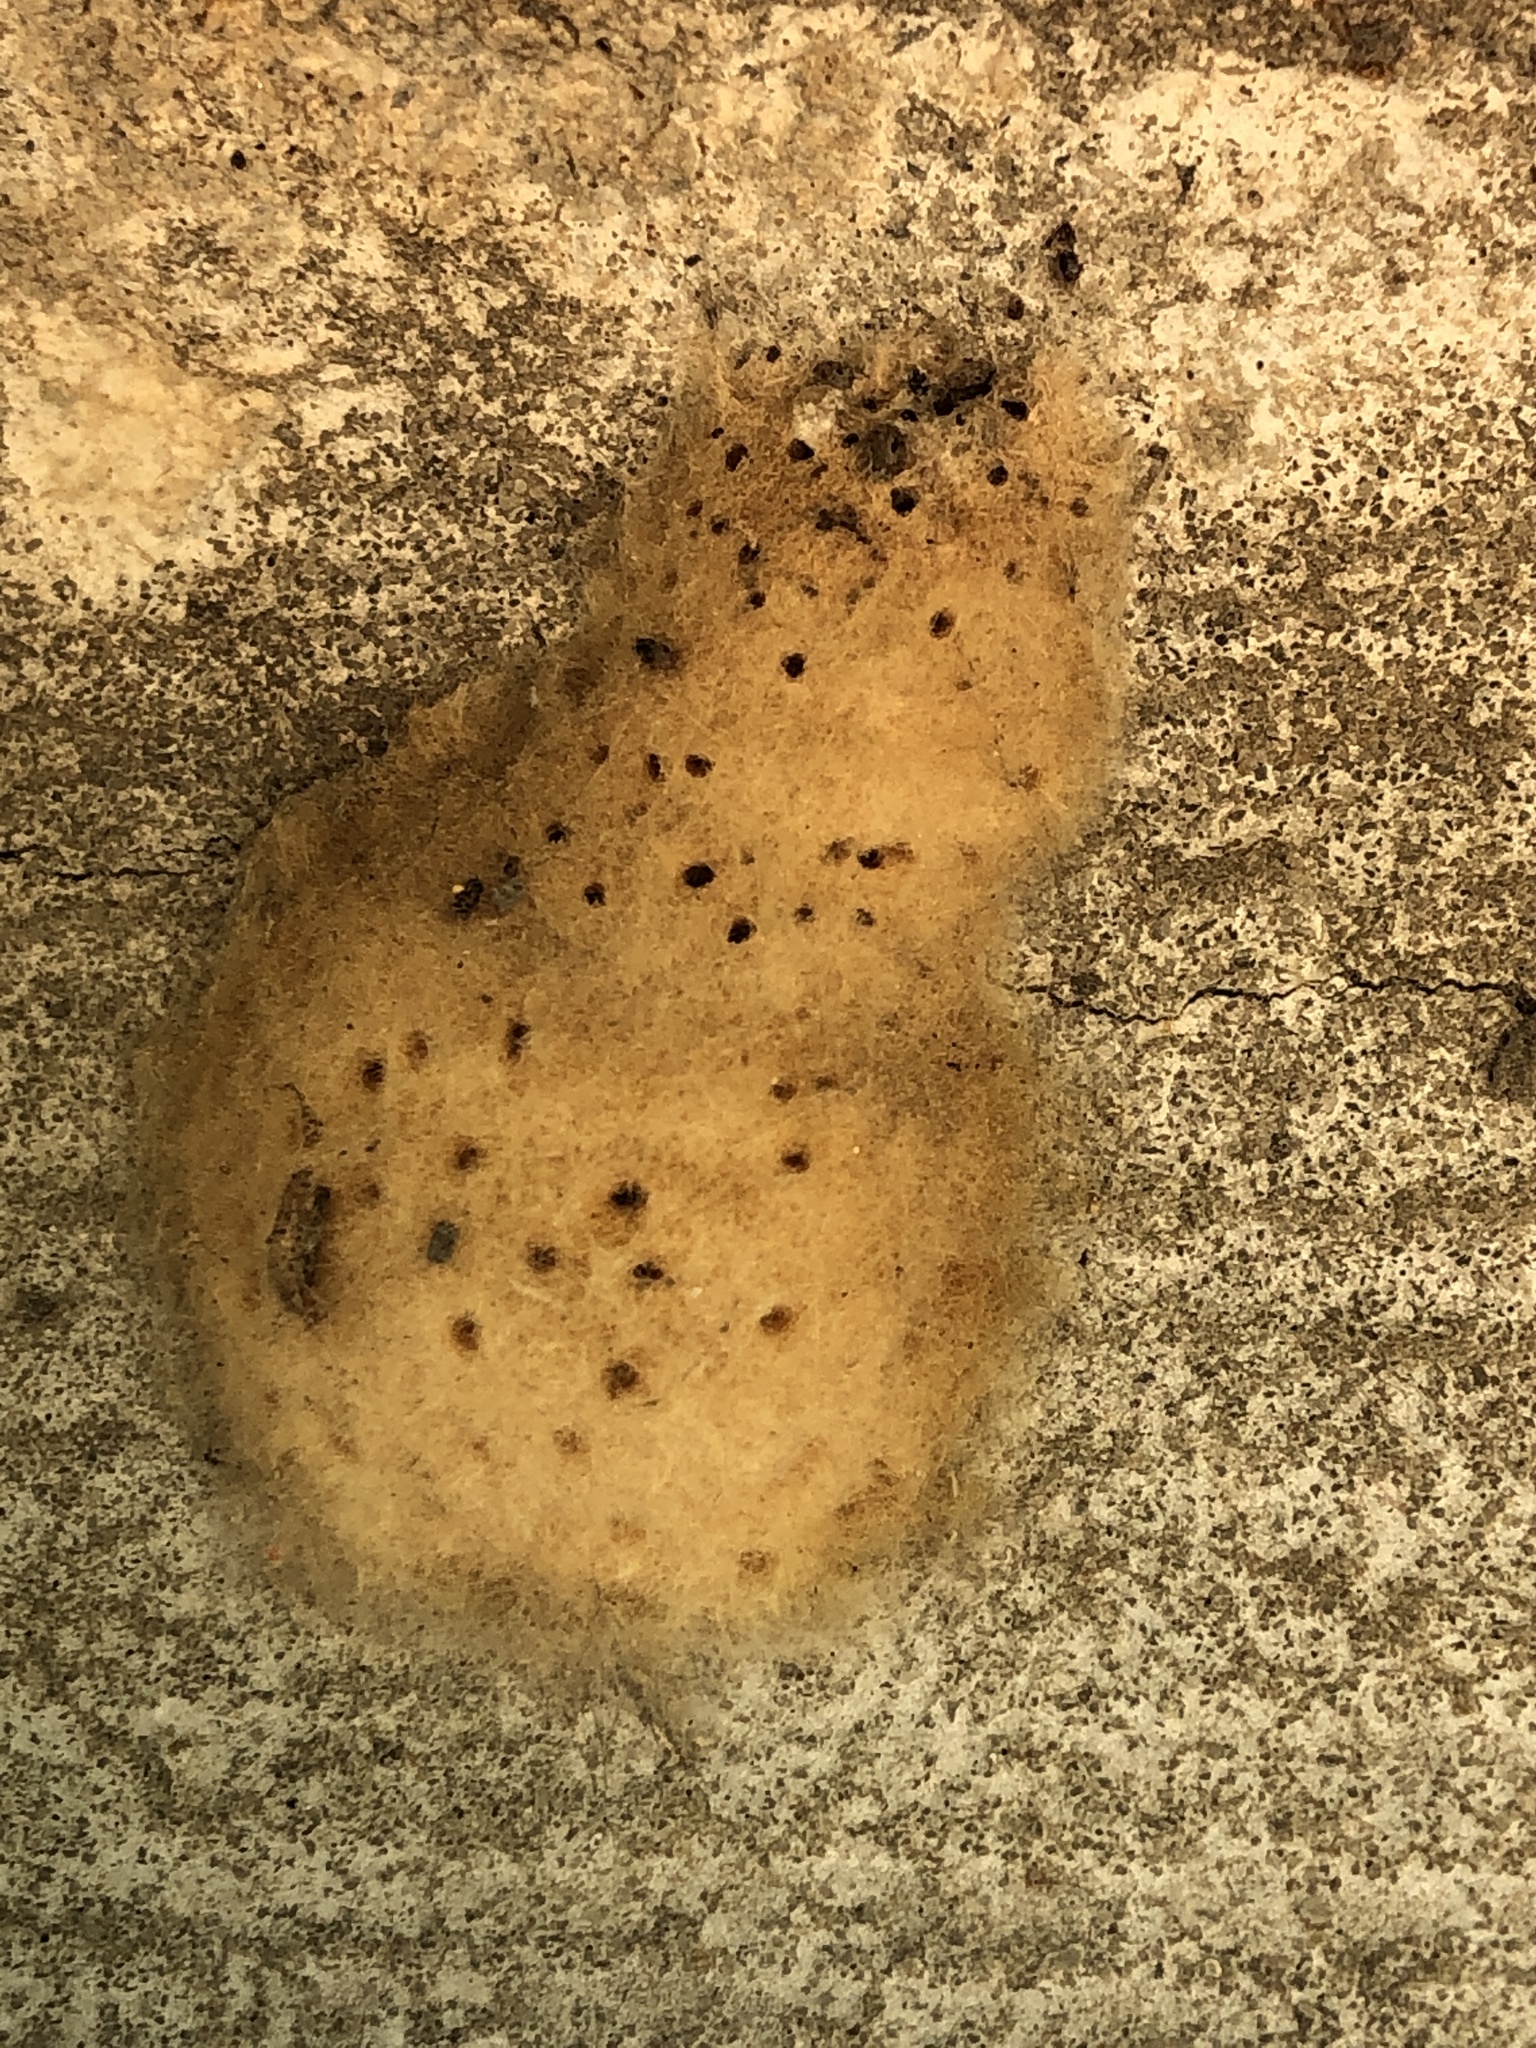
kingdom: Animalia
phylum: Arthropoda
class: Insecta
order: Lepidoptera
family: Erebidae
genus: Lymantria
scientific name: Lymantria dispar
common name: Gypsy moth
